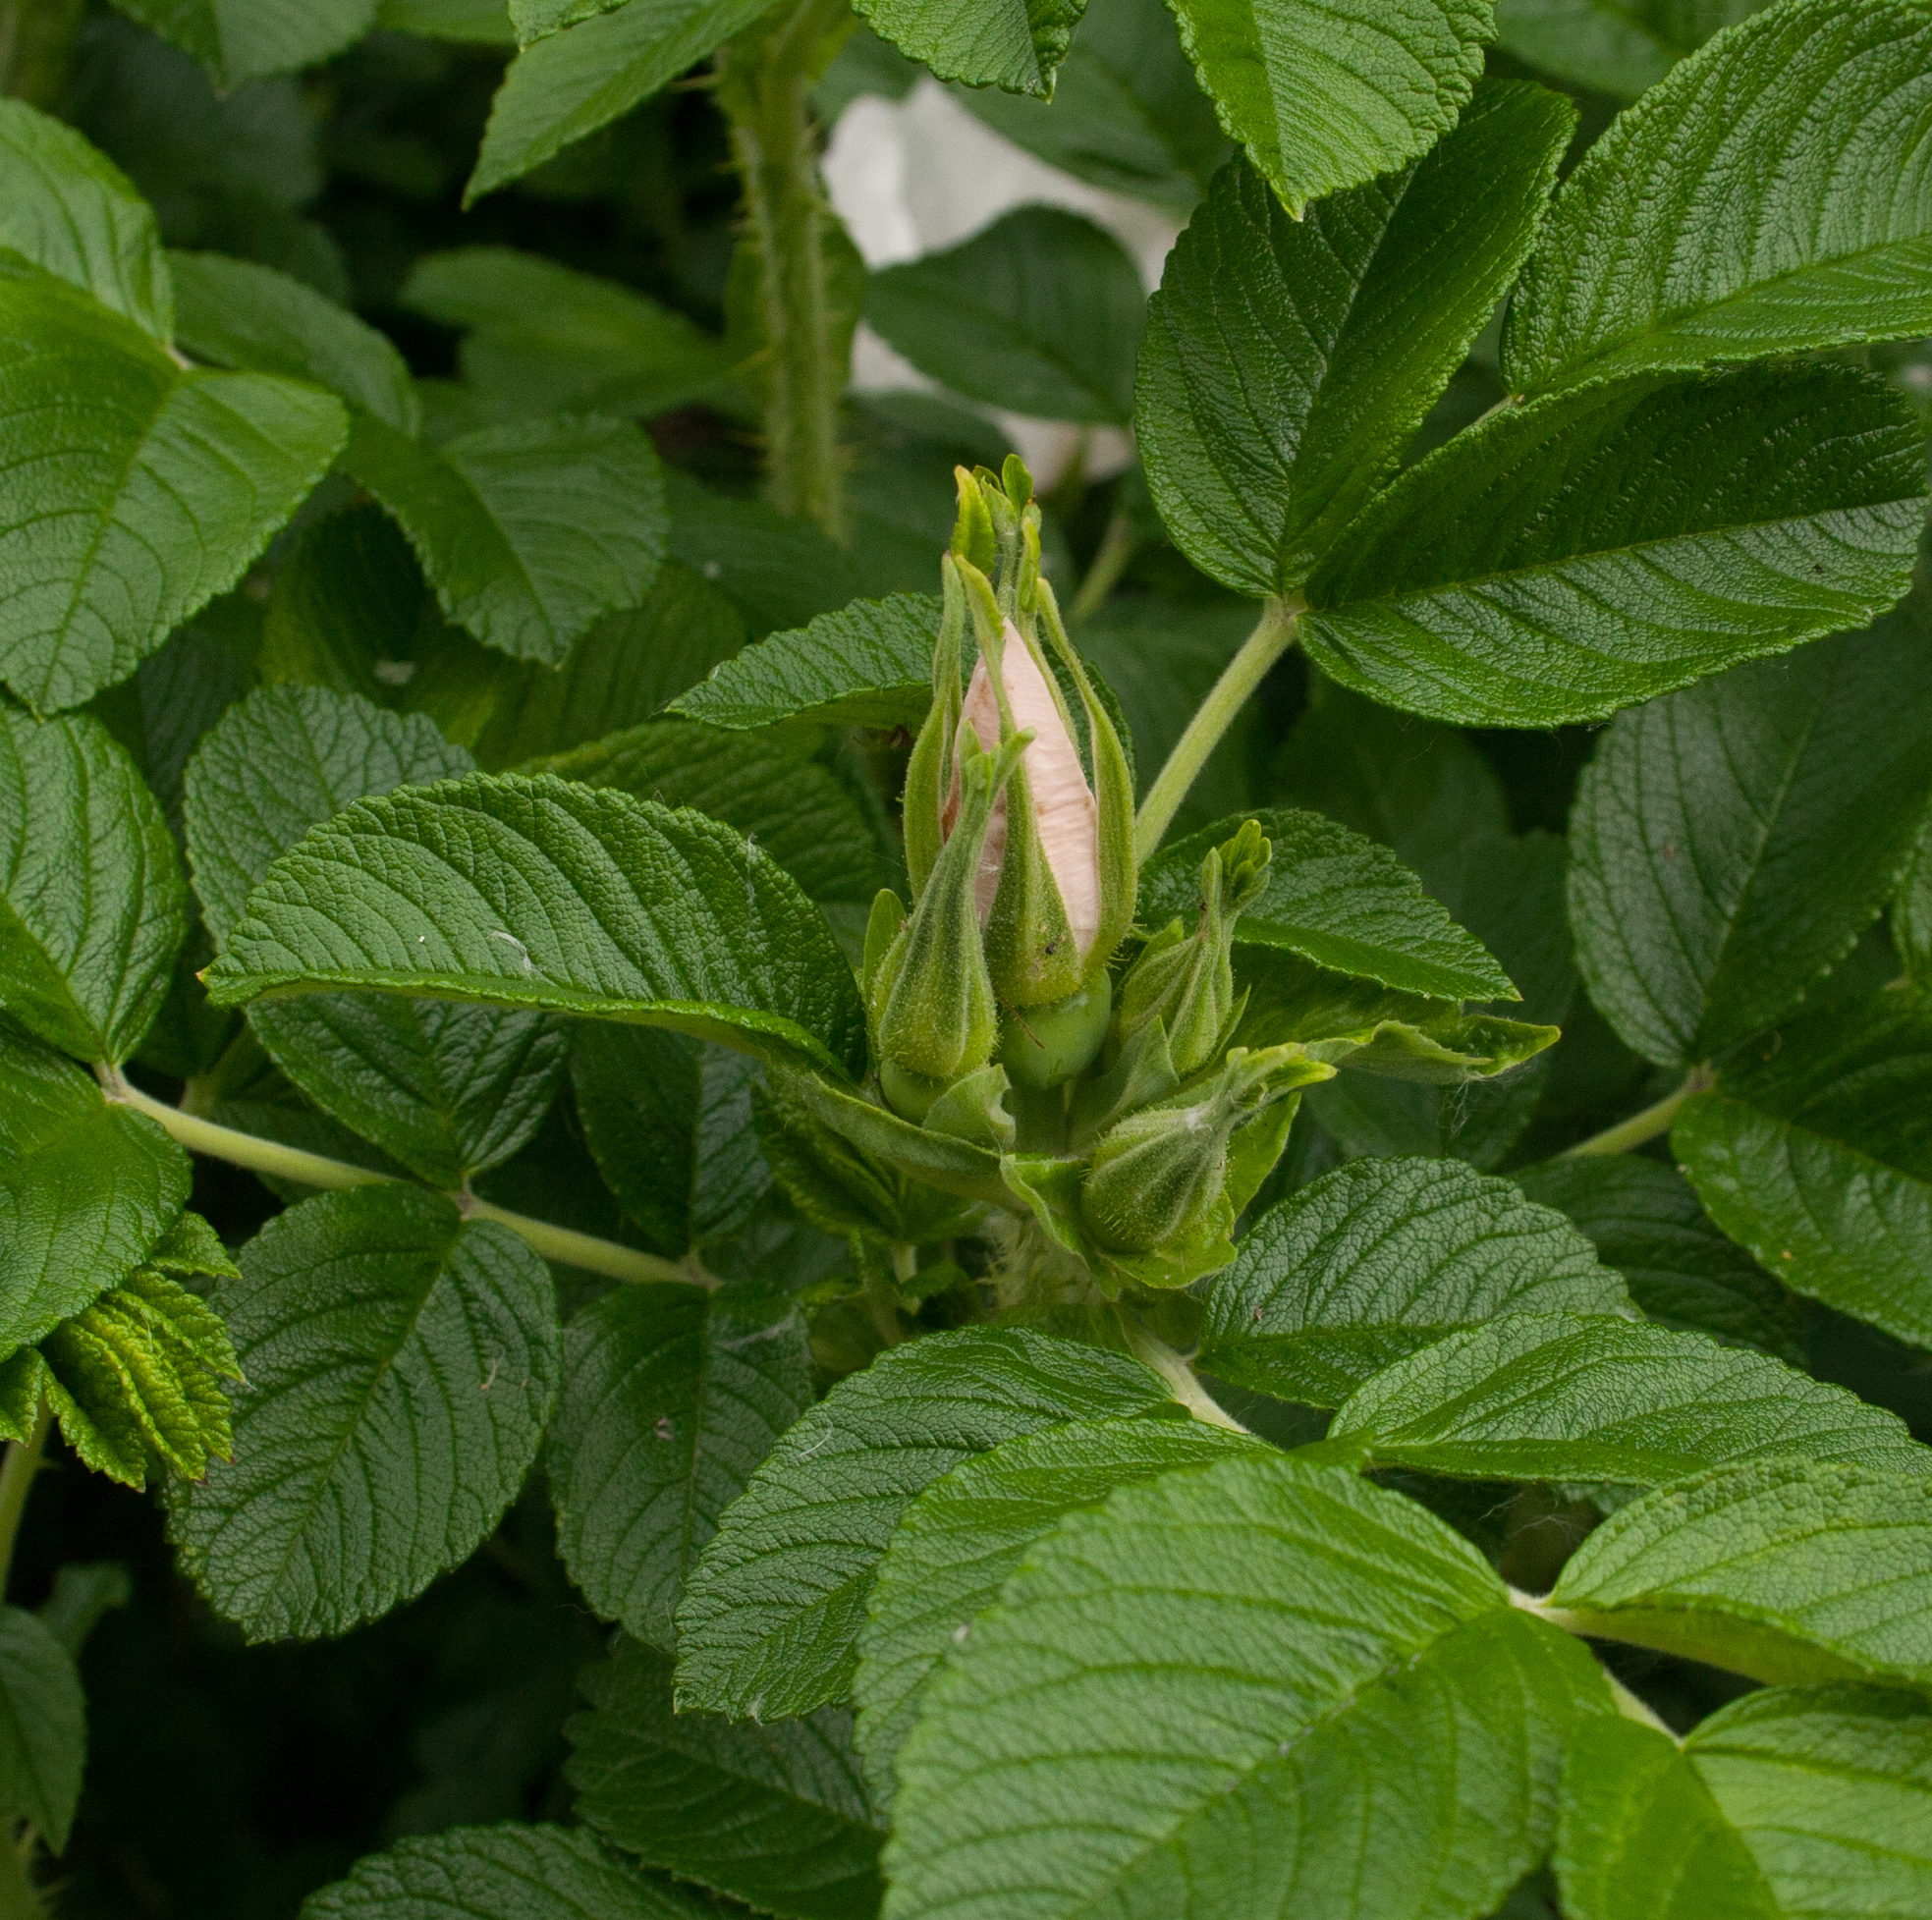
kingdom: Plantae
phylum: Tracheophyta
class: Magnoliopsida
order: Rosales
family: Rosaceae
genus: Rosa
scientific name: Rosa rugosa
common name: Japanese rose
